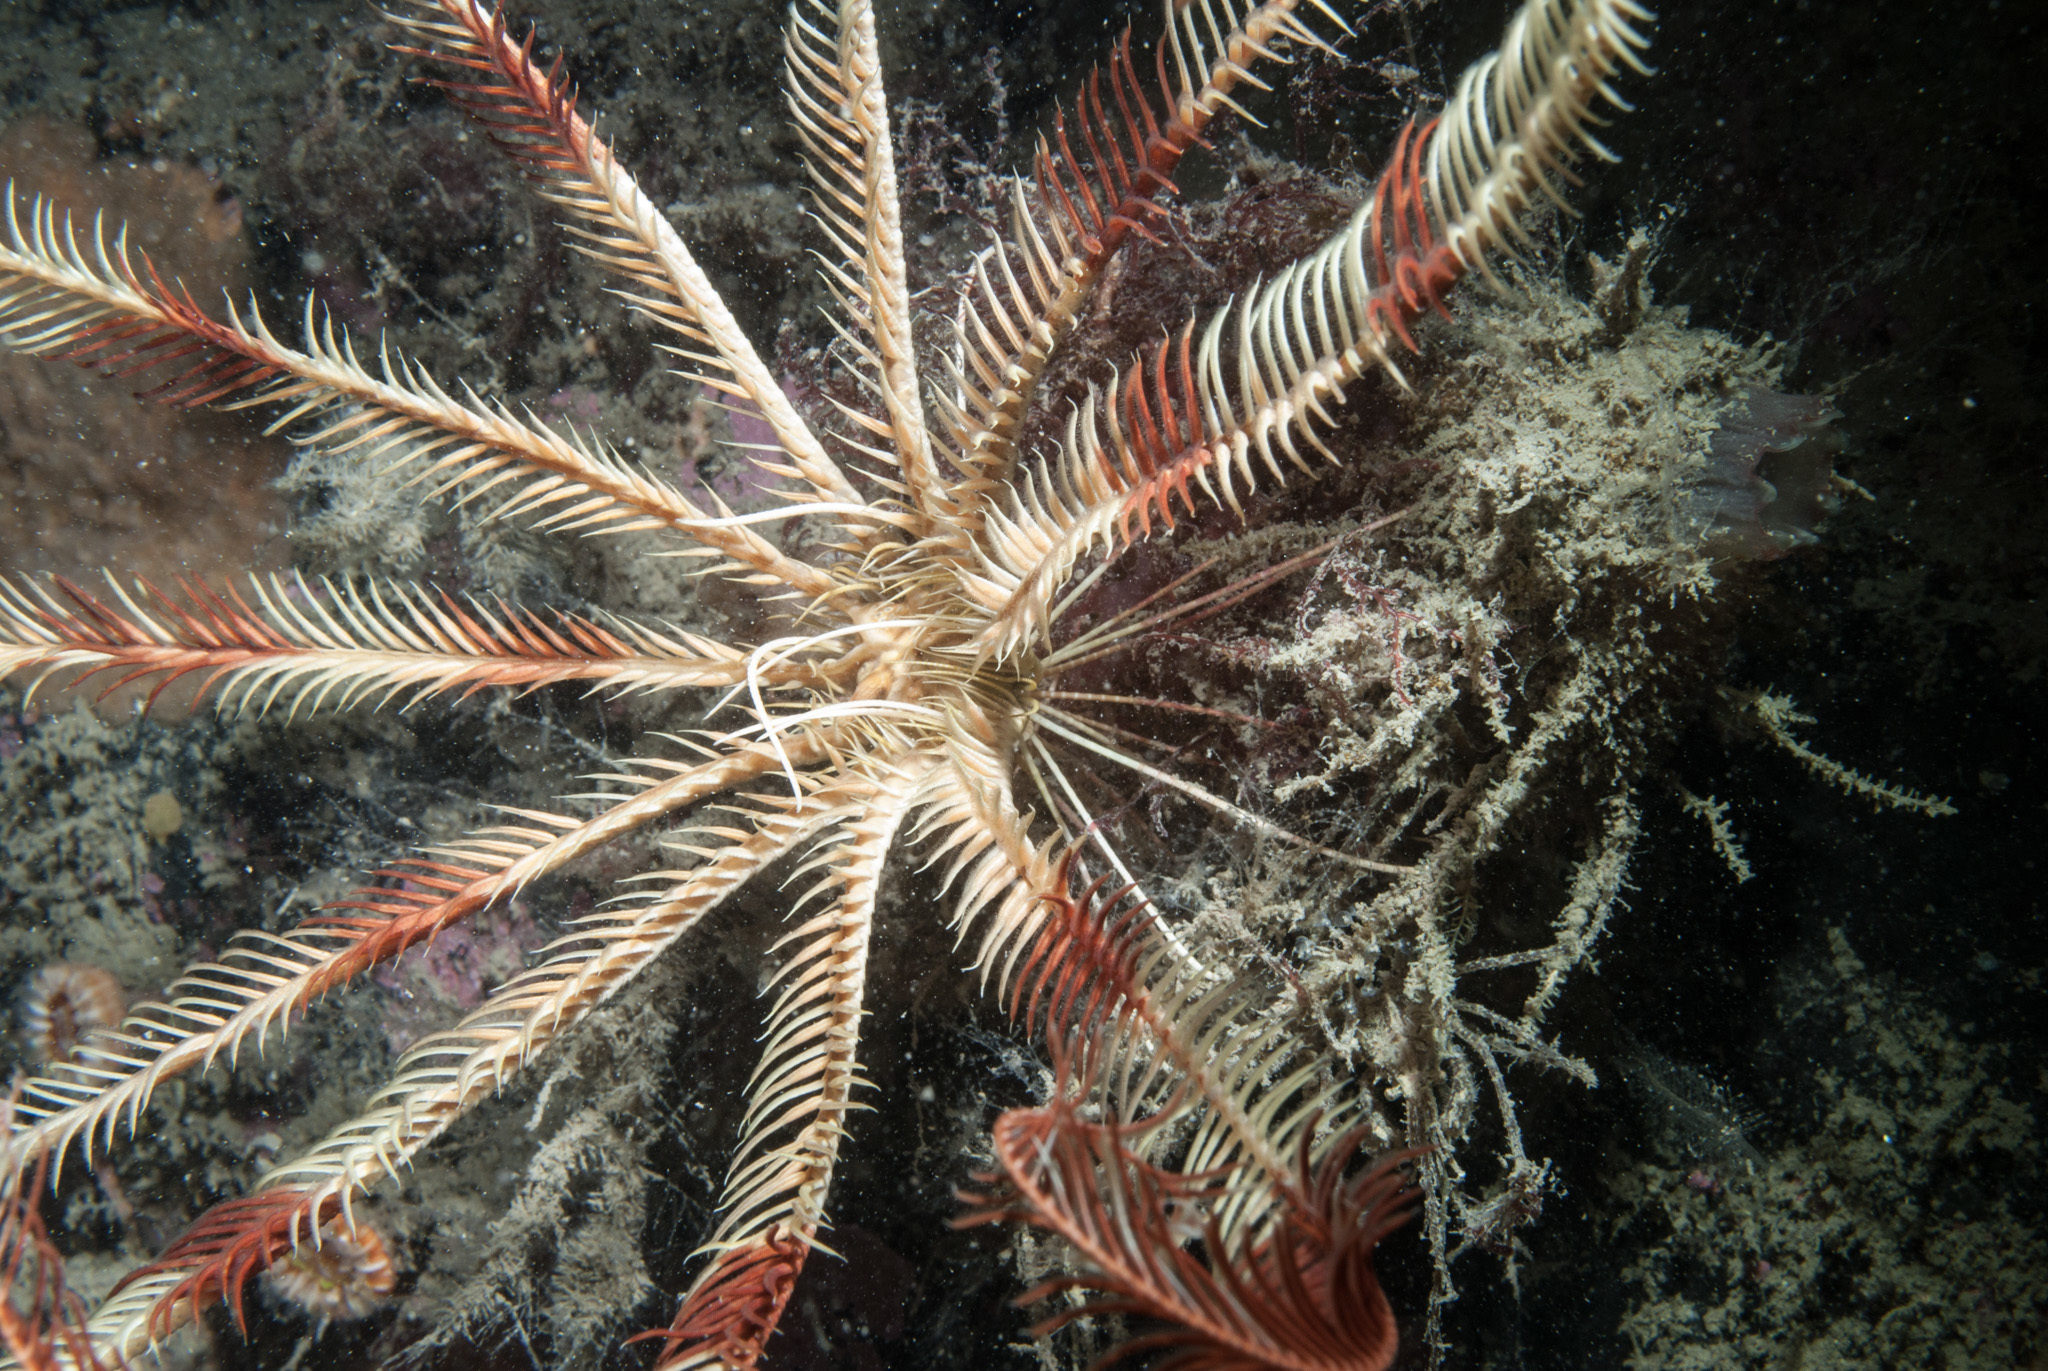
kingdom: Animalia
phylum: Echinodermata
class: Crinoidea
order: Comatulida
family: Antedonidae
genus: Leptometra
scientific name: Leptometra celtica
